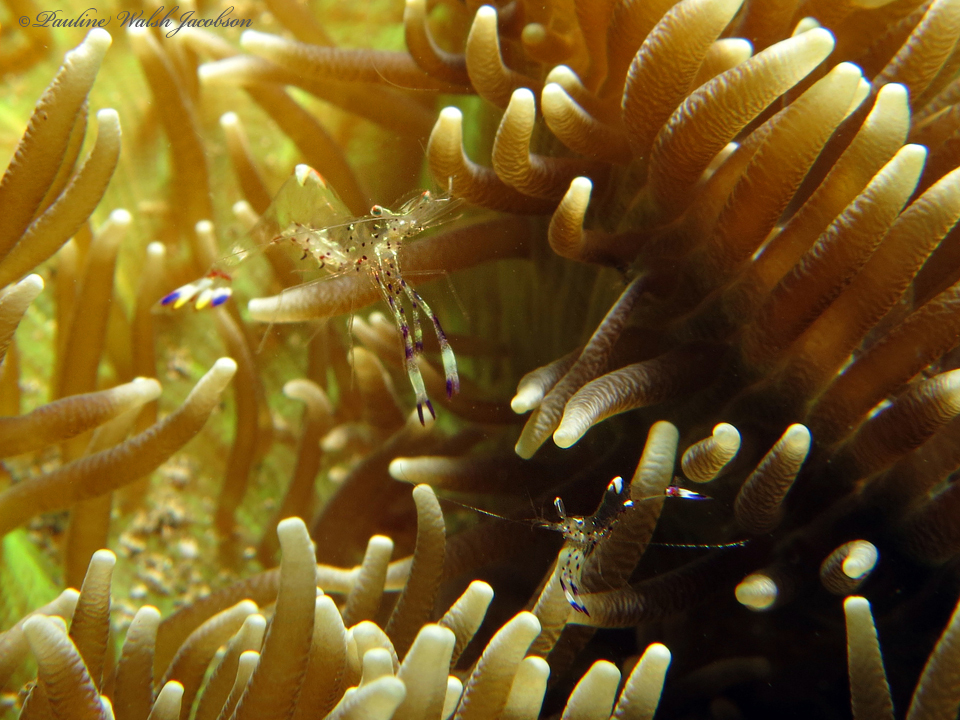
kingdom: Animalia
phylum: Arthropoda
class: Malacostraca
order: Decapoda
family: Palaemonidae
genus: Ancylomenes
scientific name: Ancylomenes holthuisi
